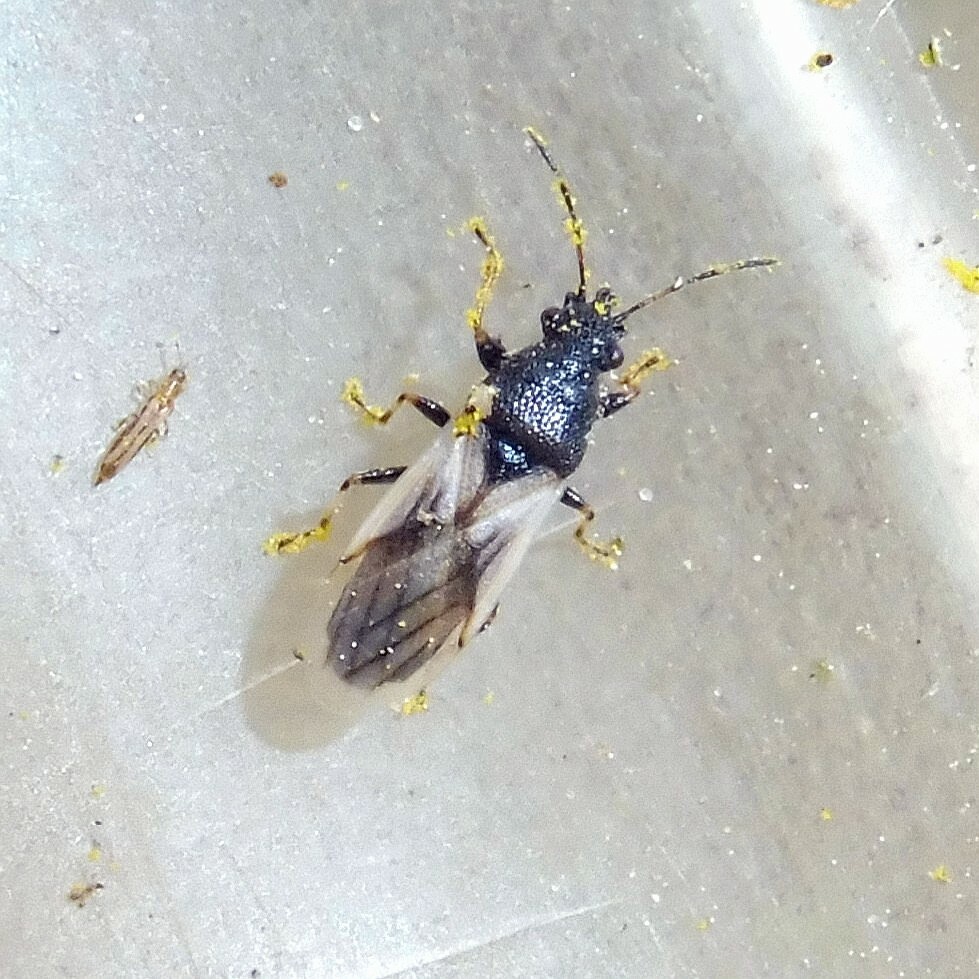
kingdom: Animalia
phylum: Arthropoda
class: Insecta
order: Hemiptera
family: Oxycarenidae
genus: Metopoplax
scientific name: Metopoplax ditomoides
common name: Seed bug
